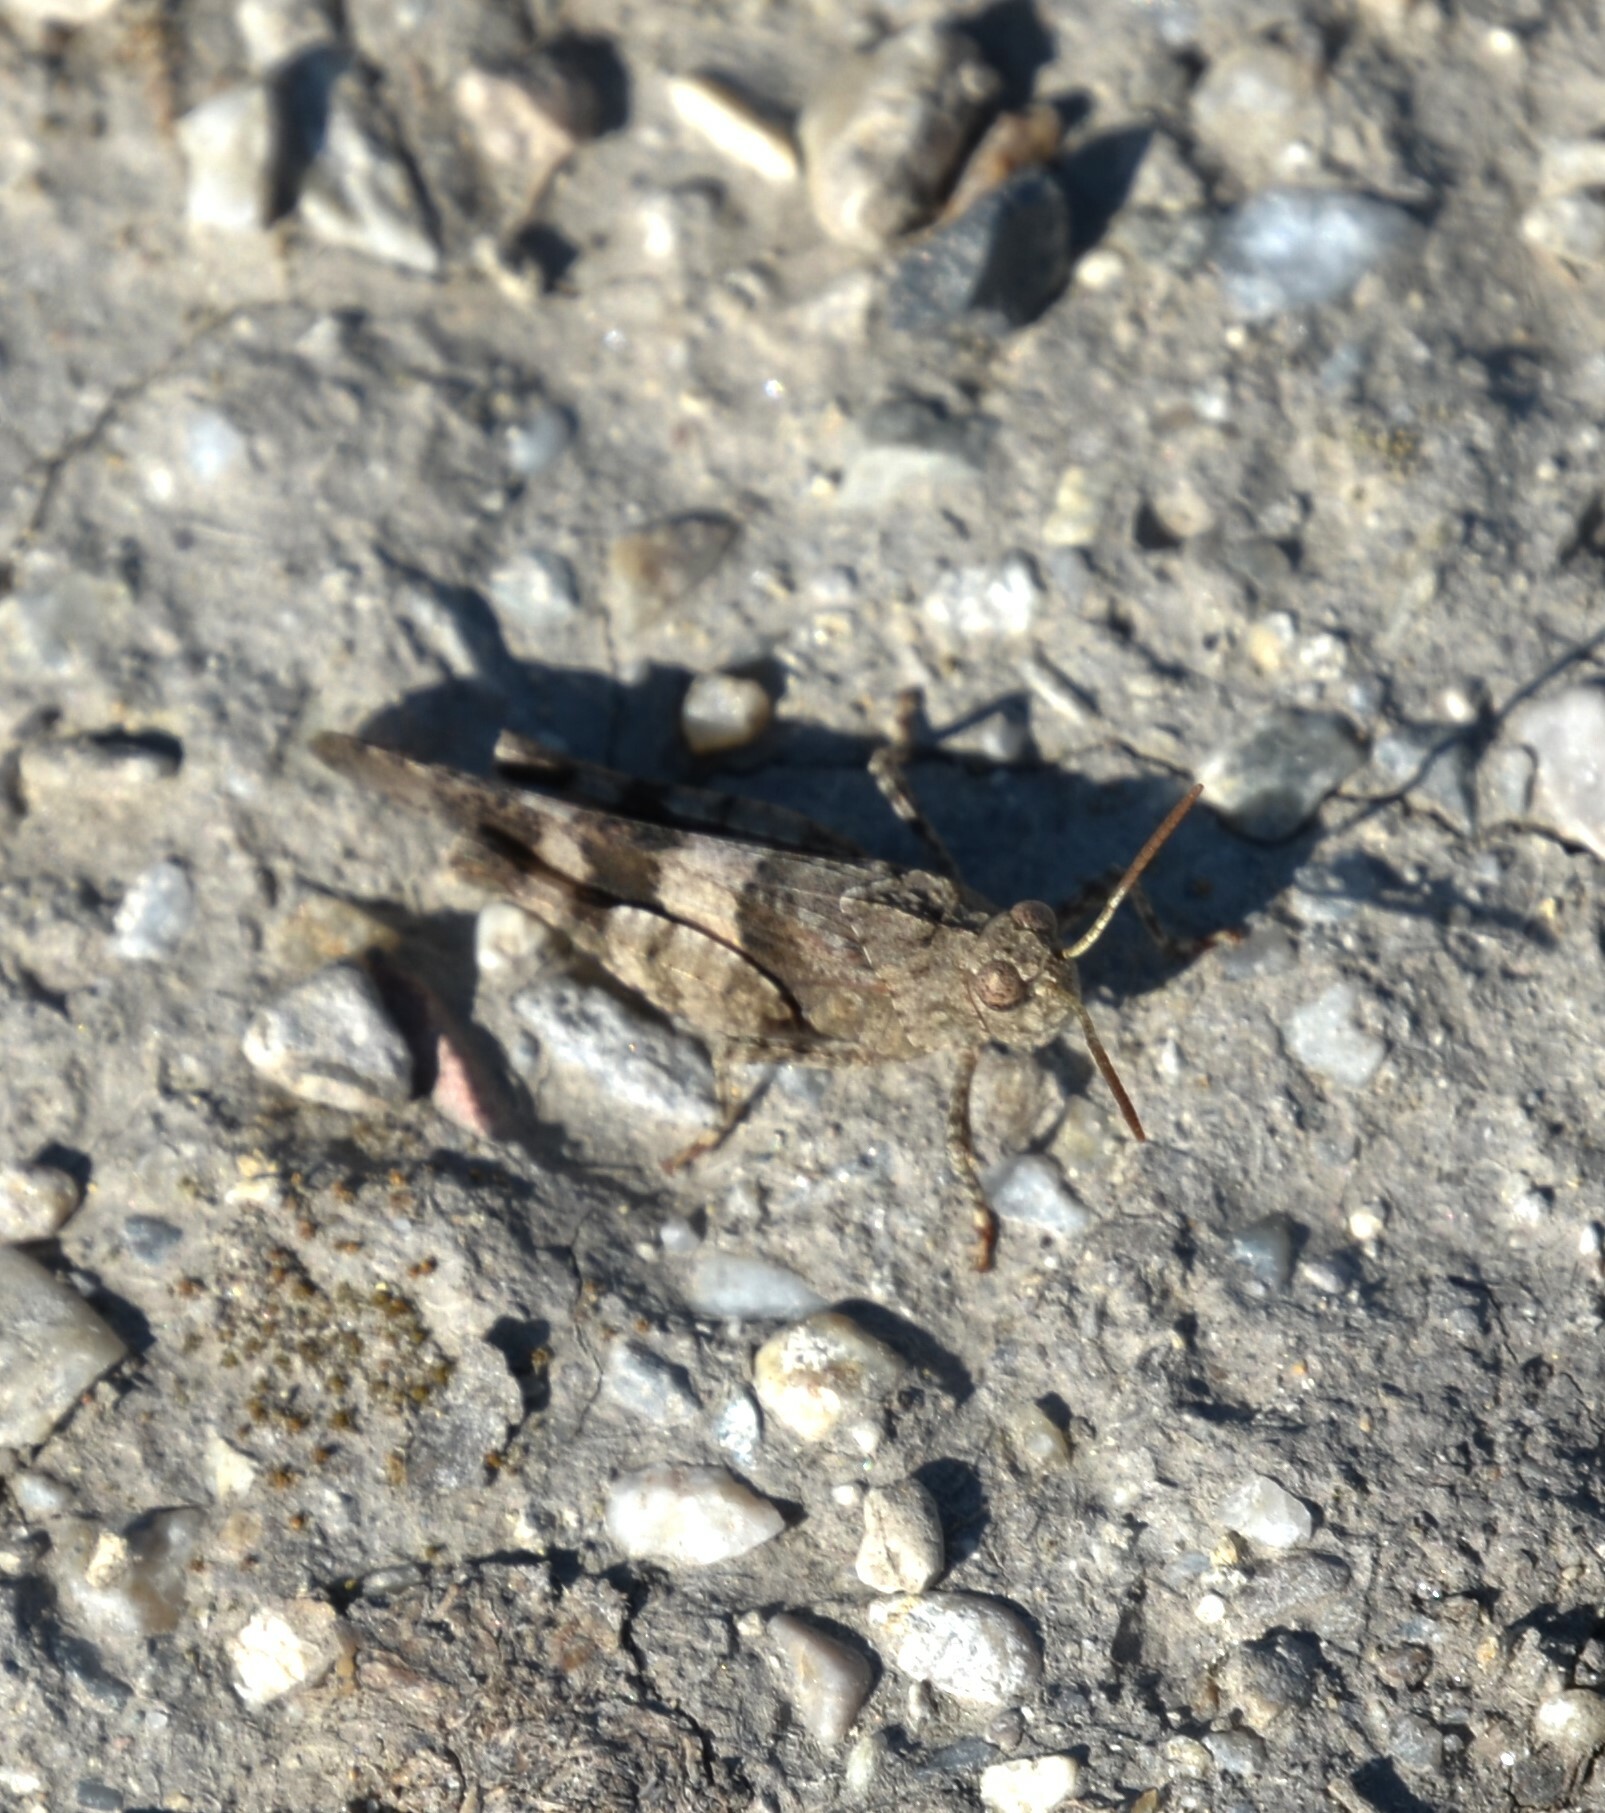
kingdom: Animalia
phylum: Arthropoda
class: Insecta
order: Orthoptera
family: Acrididae
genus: Oedipoda
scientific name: Oedipoda caerulescens
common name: Blue-winged grasshopper
